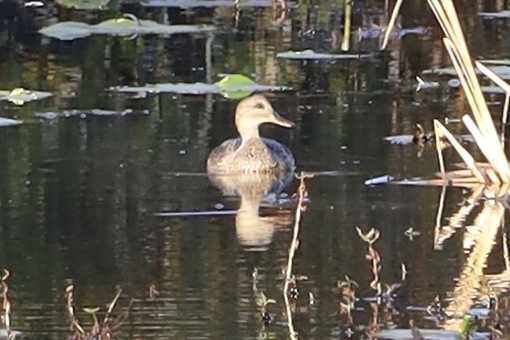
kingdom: Animalia
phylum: Chordata
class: Aves
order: Anseriformes
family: Anatidae
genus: Mareca
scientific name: Mareca strepera
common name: Gadwall
